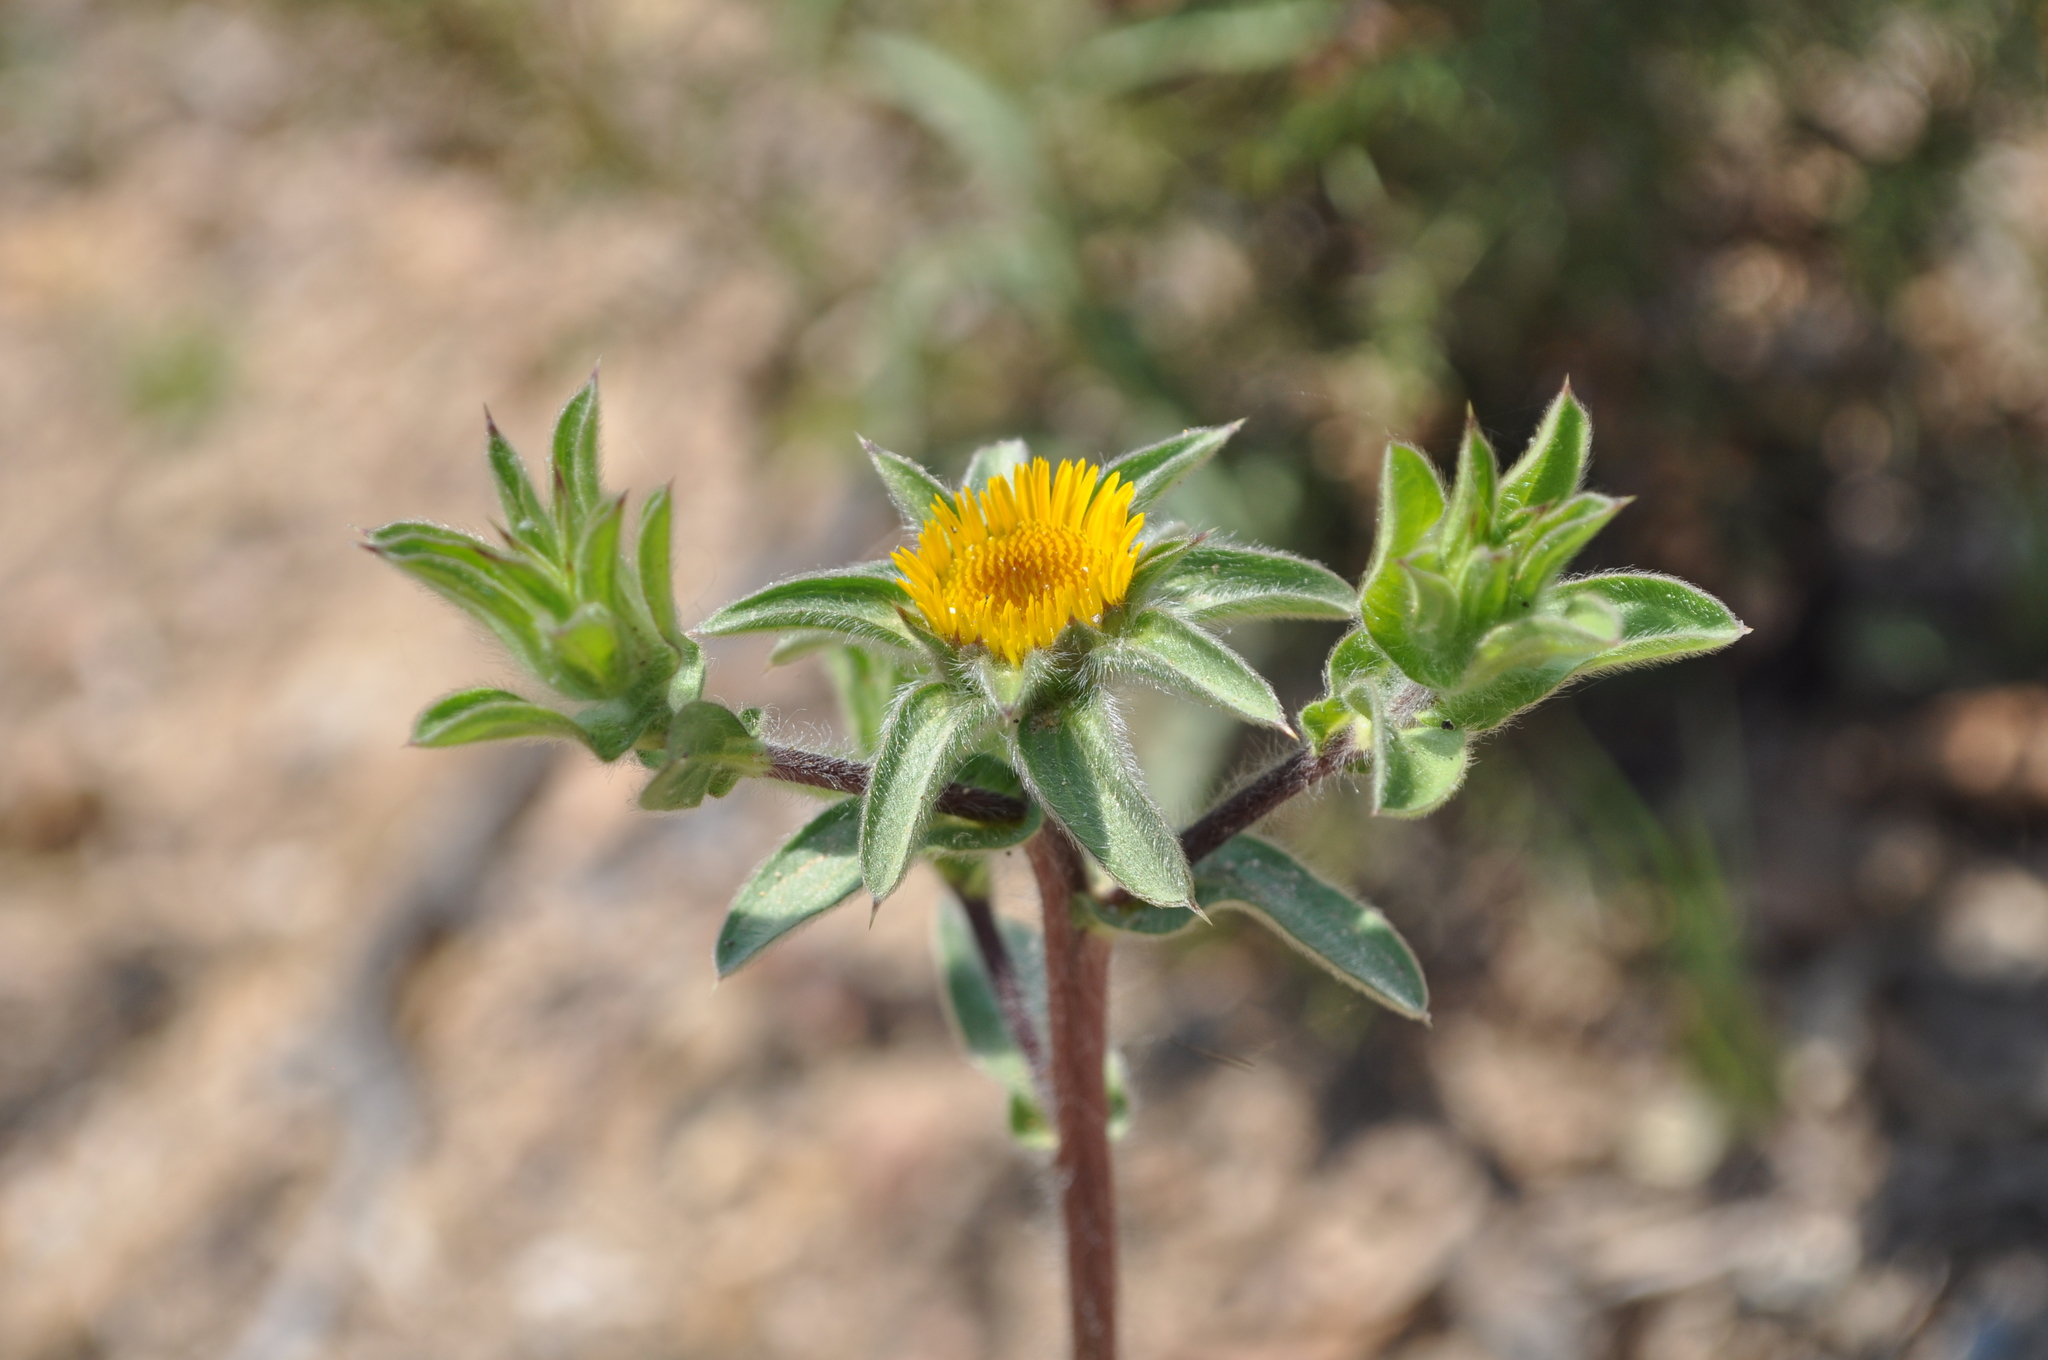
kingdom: Plantae
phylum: Tracheophyta
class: Magnoliopsida
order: Asterales
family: Asteraceae
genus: Pallenis
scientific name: Pallenis spinosa
